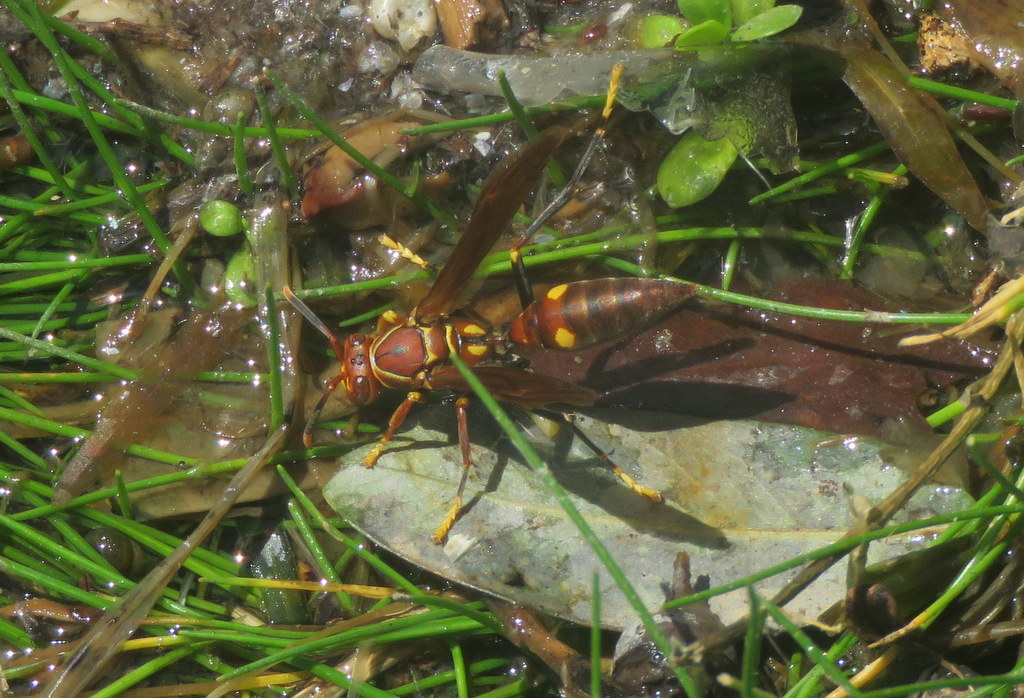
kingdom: Animalia
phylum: Arthropoda
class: Insecta
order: Hymenoptera
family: Eumenidae
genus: Polistes
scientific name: Polistes simillimus
